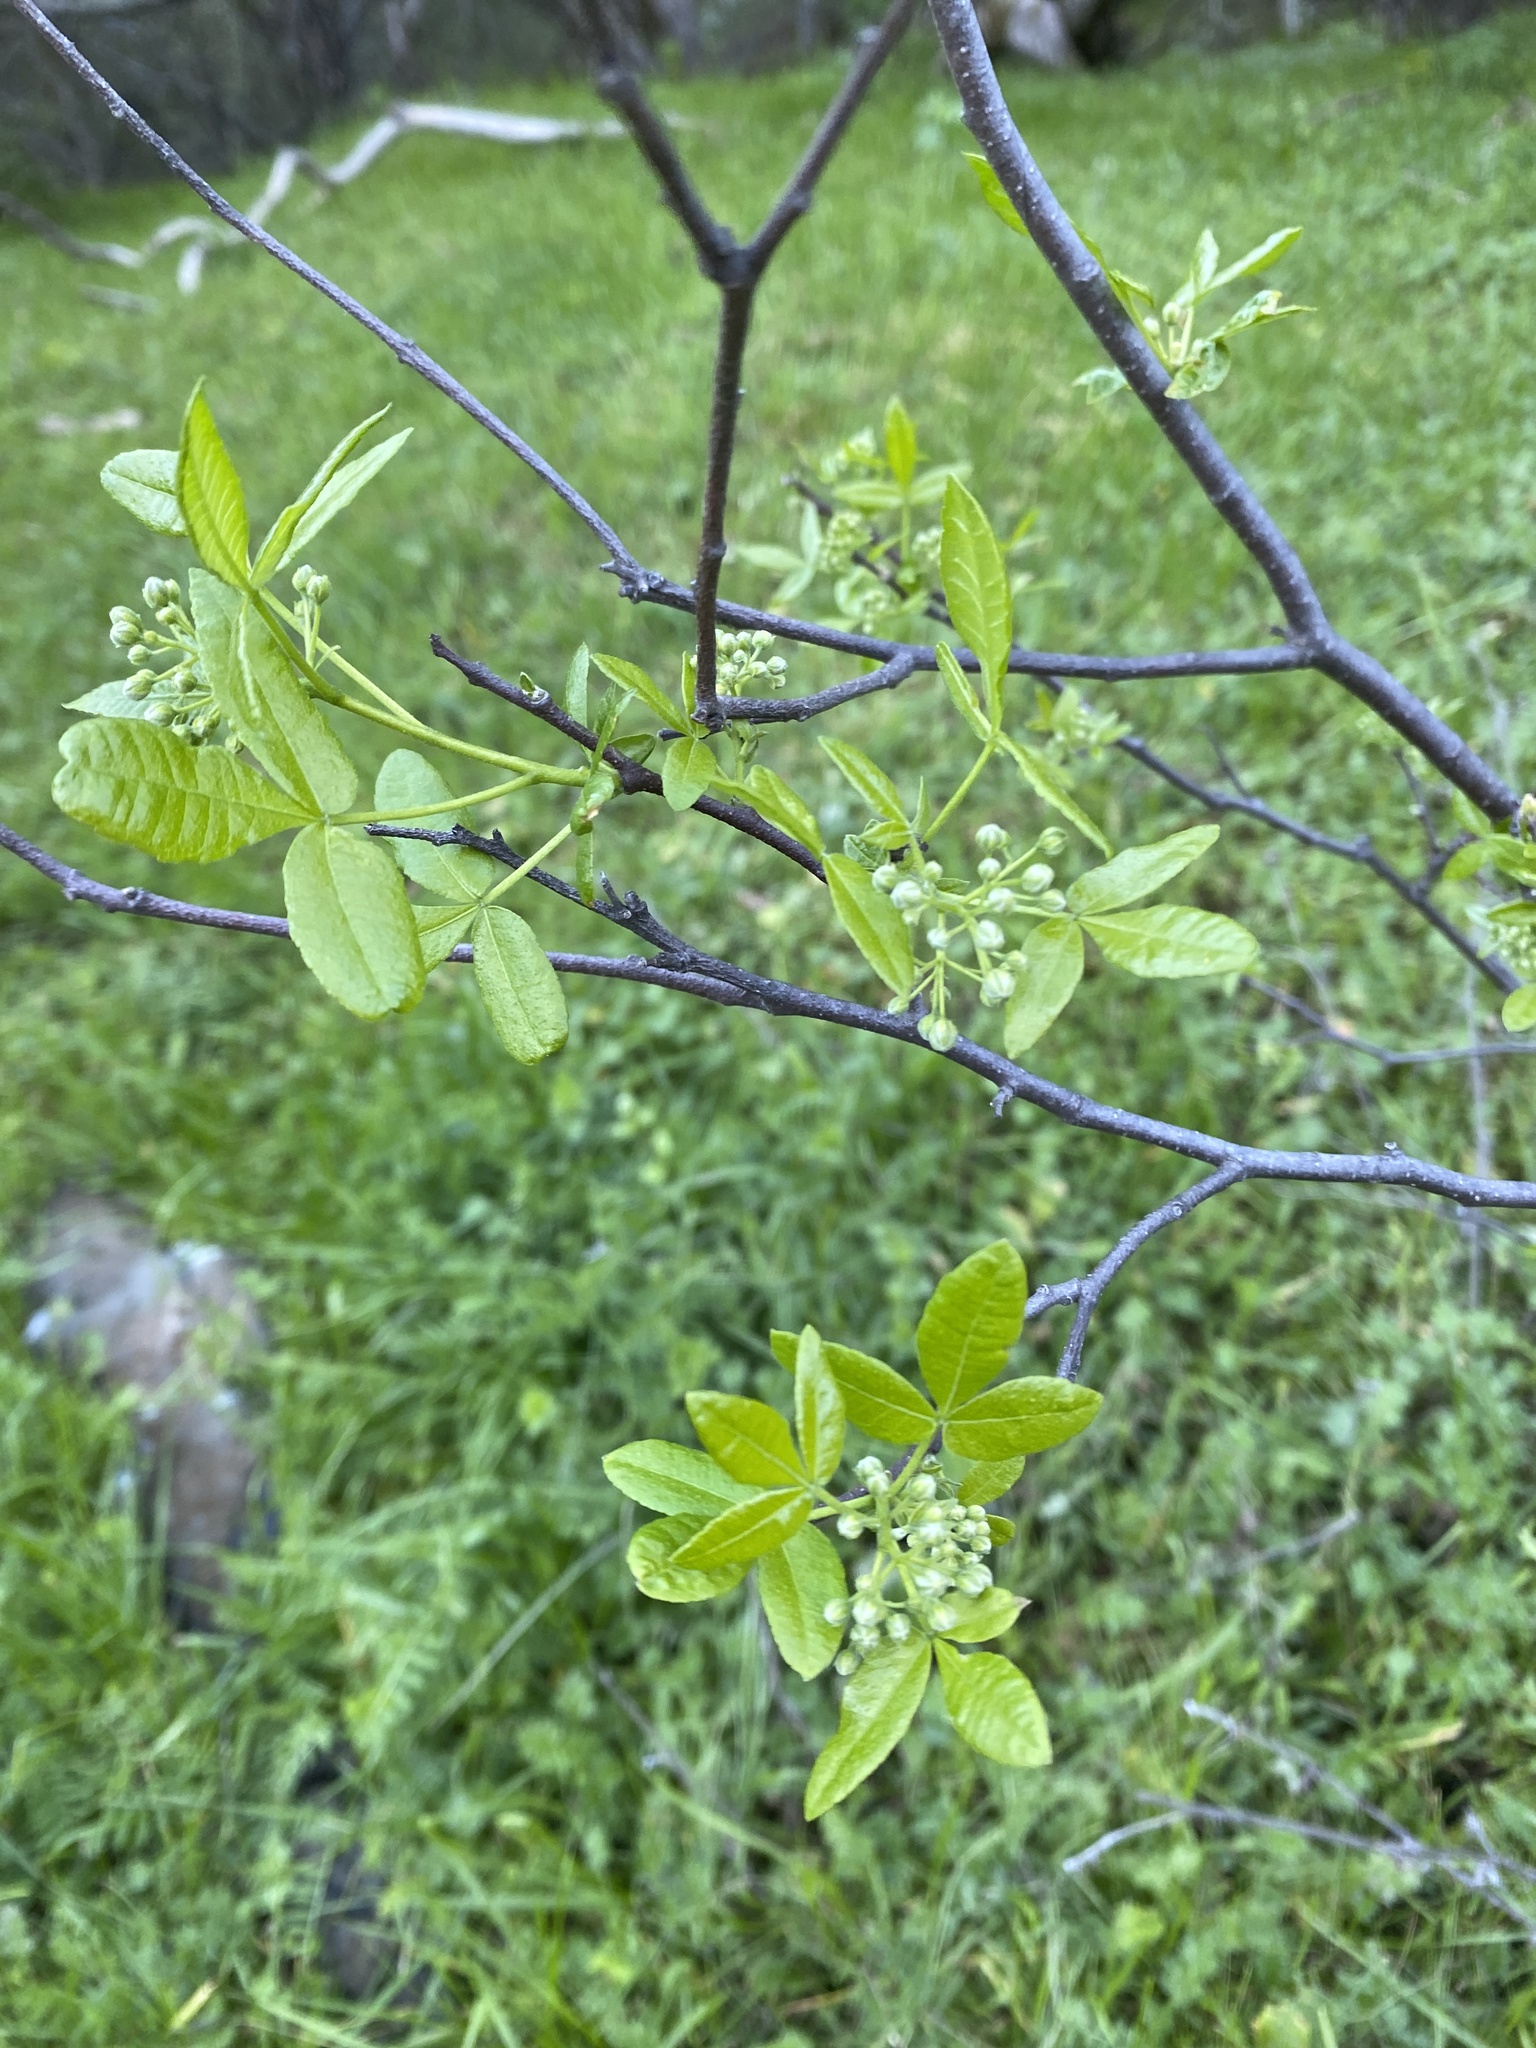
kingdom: Plantae
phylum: Tracheophyta
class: Magnoliopsida
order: Sapindales
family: Rutaceae
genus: Ptelea
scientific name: Ptelea crenulata
